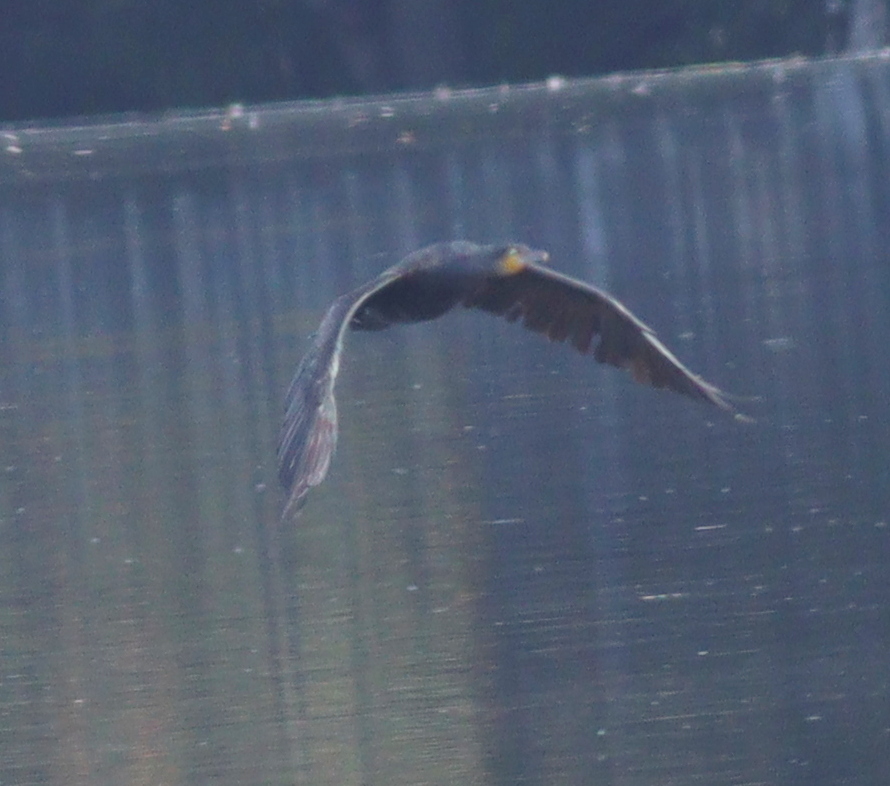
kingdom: Animalia
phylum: Chordata
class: Aves
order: Suliformes
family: Phalacrocoracidae
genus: Phalacrocorax
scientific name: Phalacrocorax carbo
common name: Great cormorant
